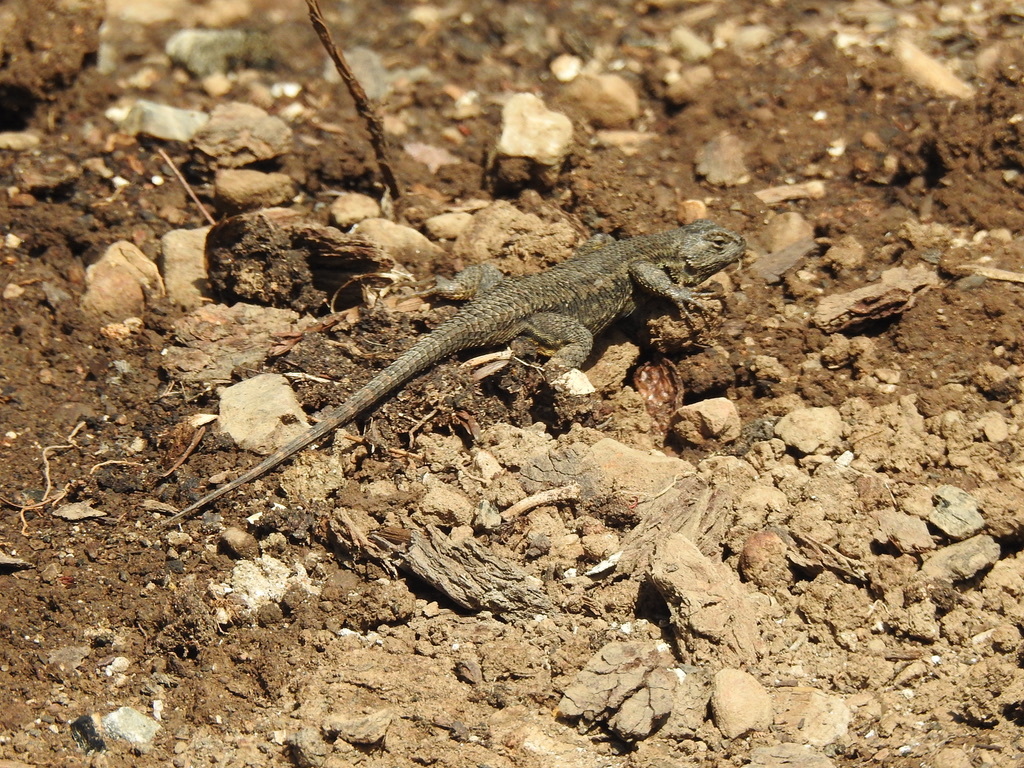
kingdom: Animalia
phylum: Chordata
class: Squamata
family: Phrynosomatidae
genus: Sceloporus
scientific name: Sceloporus occidentalis
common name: Western fence lizard
